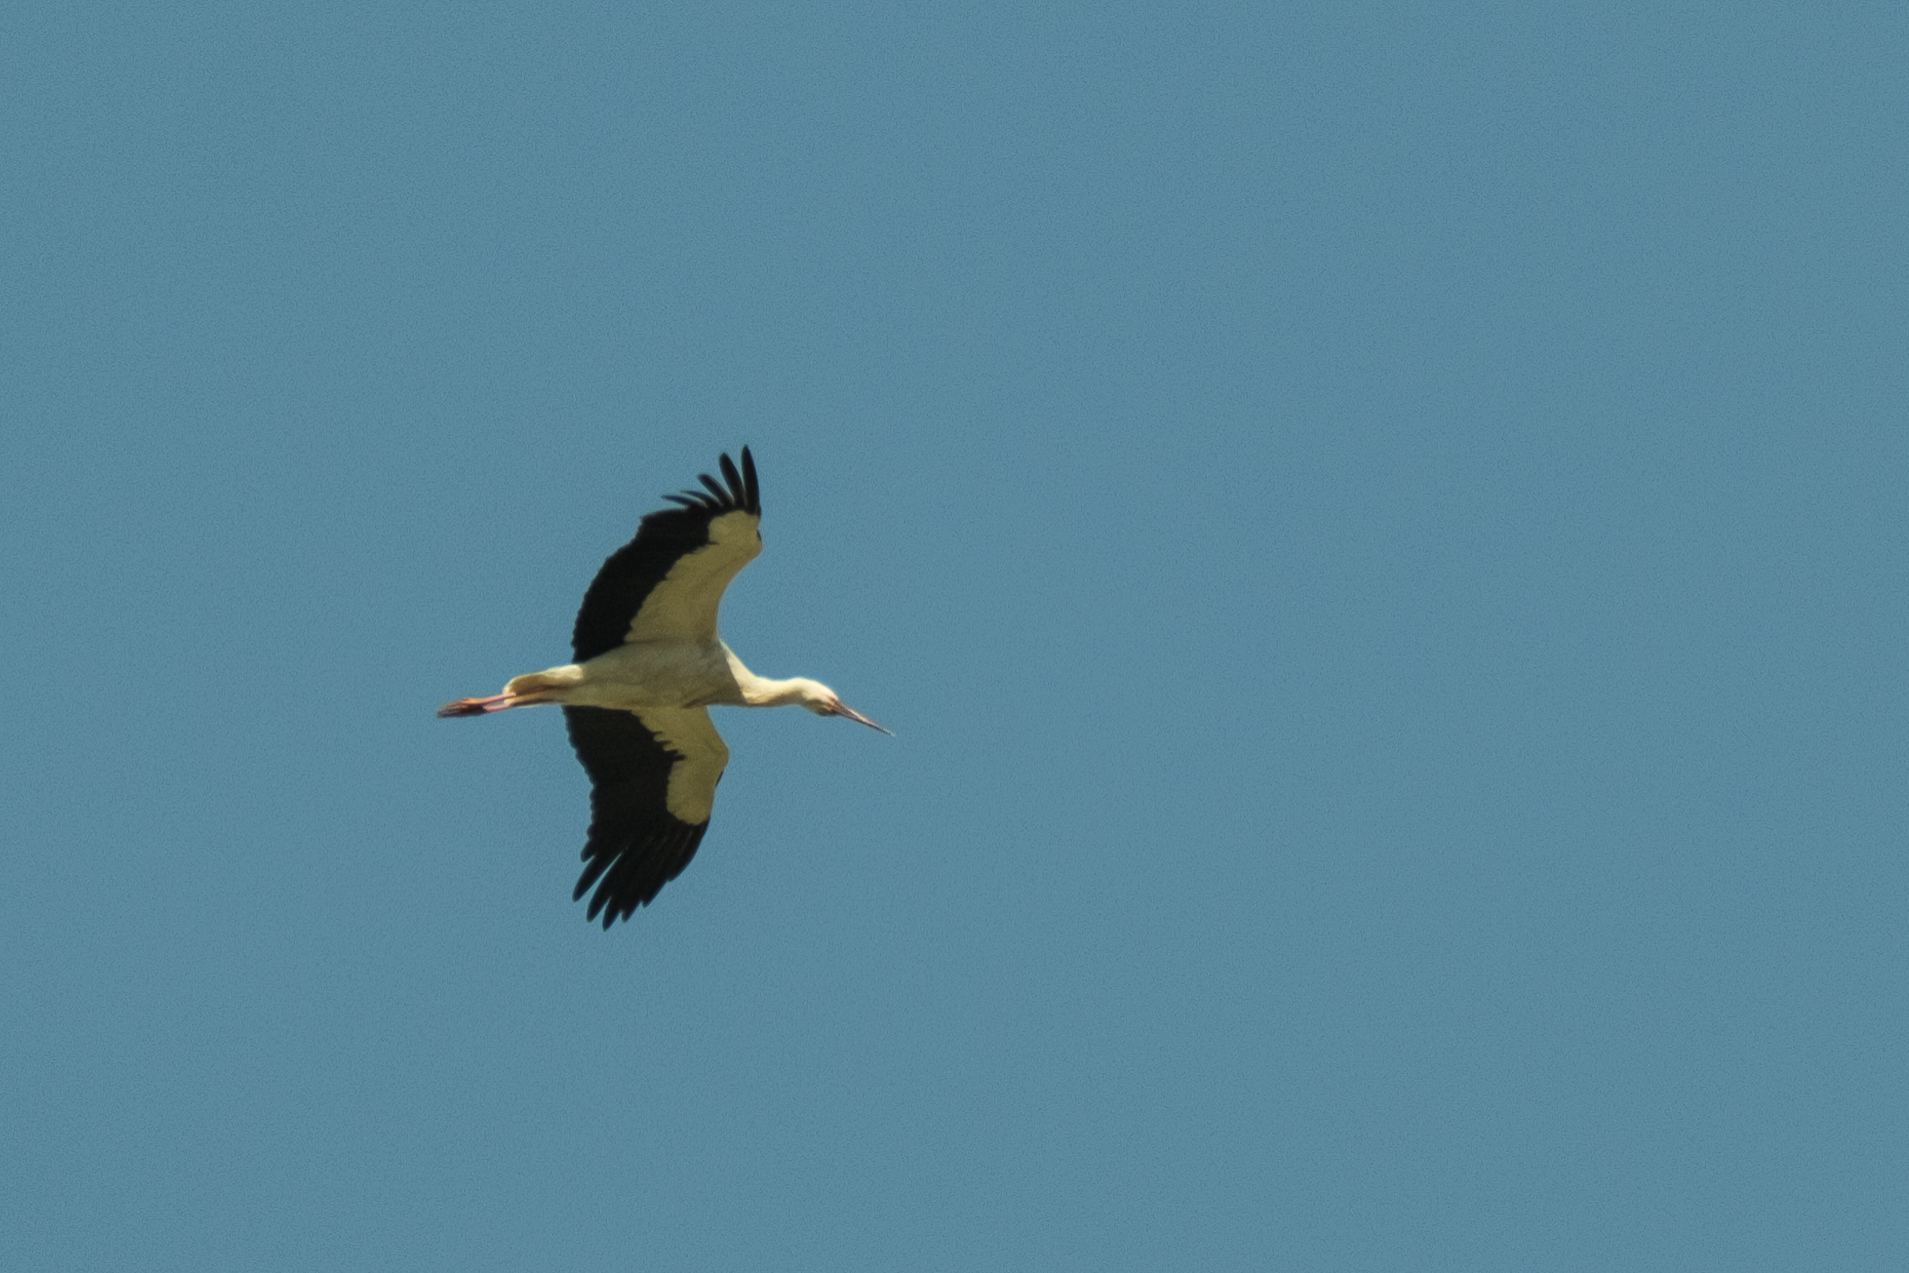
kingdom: Animalia
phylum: Chordata
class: Aves
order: Ciconiiformes
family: Ciconiidae
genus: Ciconia
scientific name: Ciconia ciconia
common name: White stork
